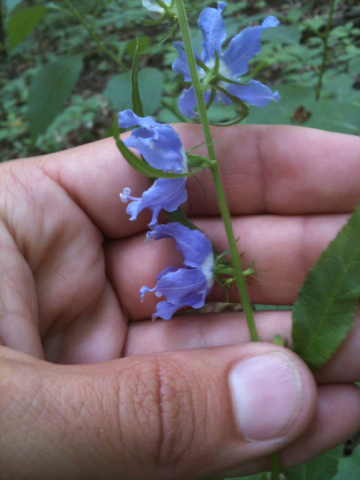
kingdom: Plantae
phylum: Tracheophyta
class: Magnoliopsida
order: Asterales
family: Campanulaceae
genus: Campanulastrum
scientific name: Campanulastrum americanum
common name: American bellflower
